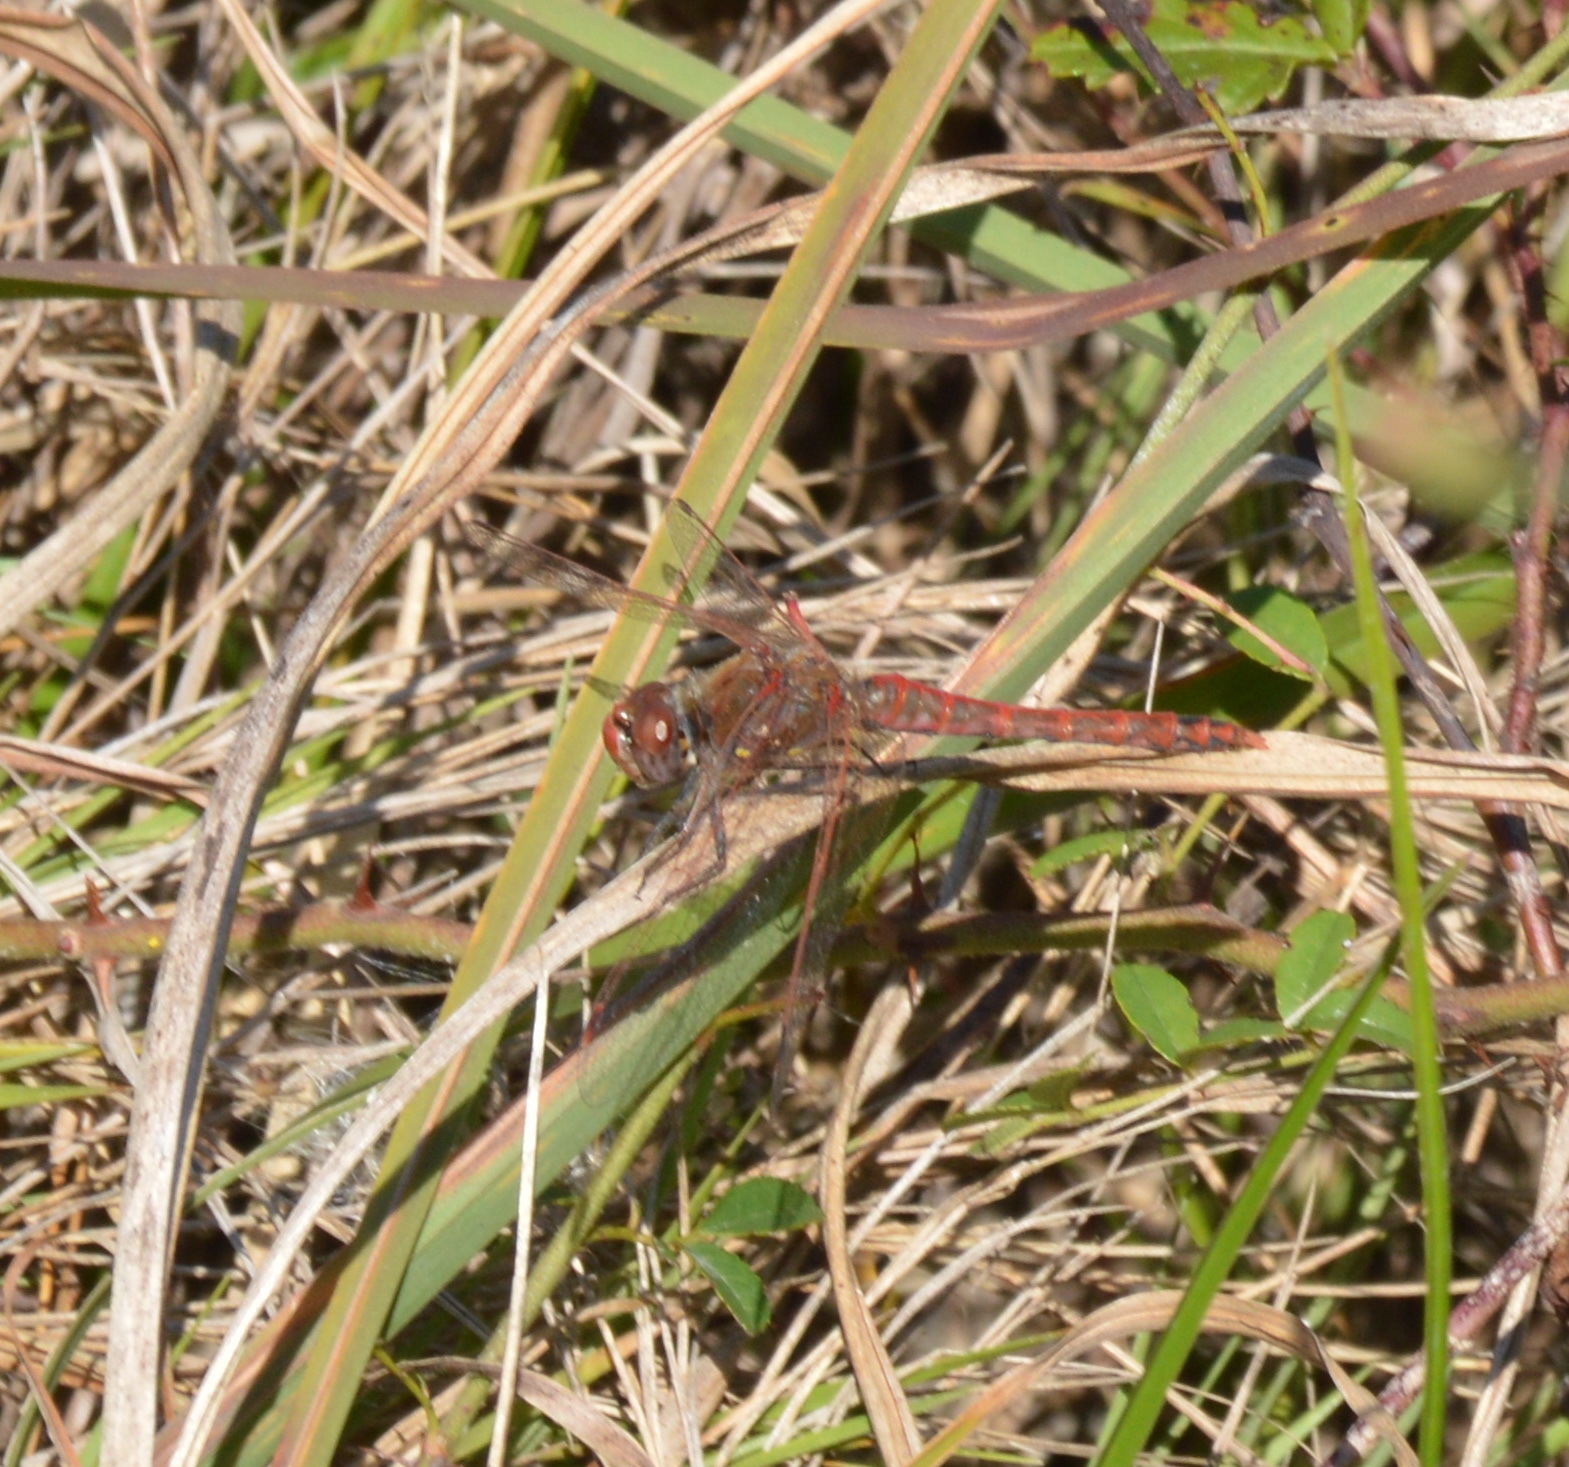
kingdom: Animalia
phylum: Arthropoda
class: Insecta
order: Odonata
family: Libellulidae
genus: Sympetrum
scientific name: Sympetrum corruptum
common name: Variegated meadowhawk
